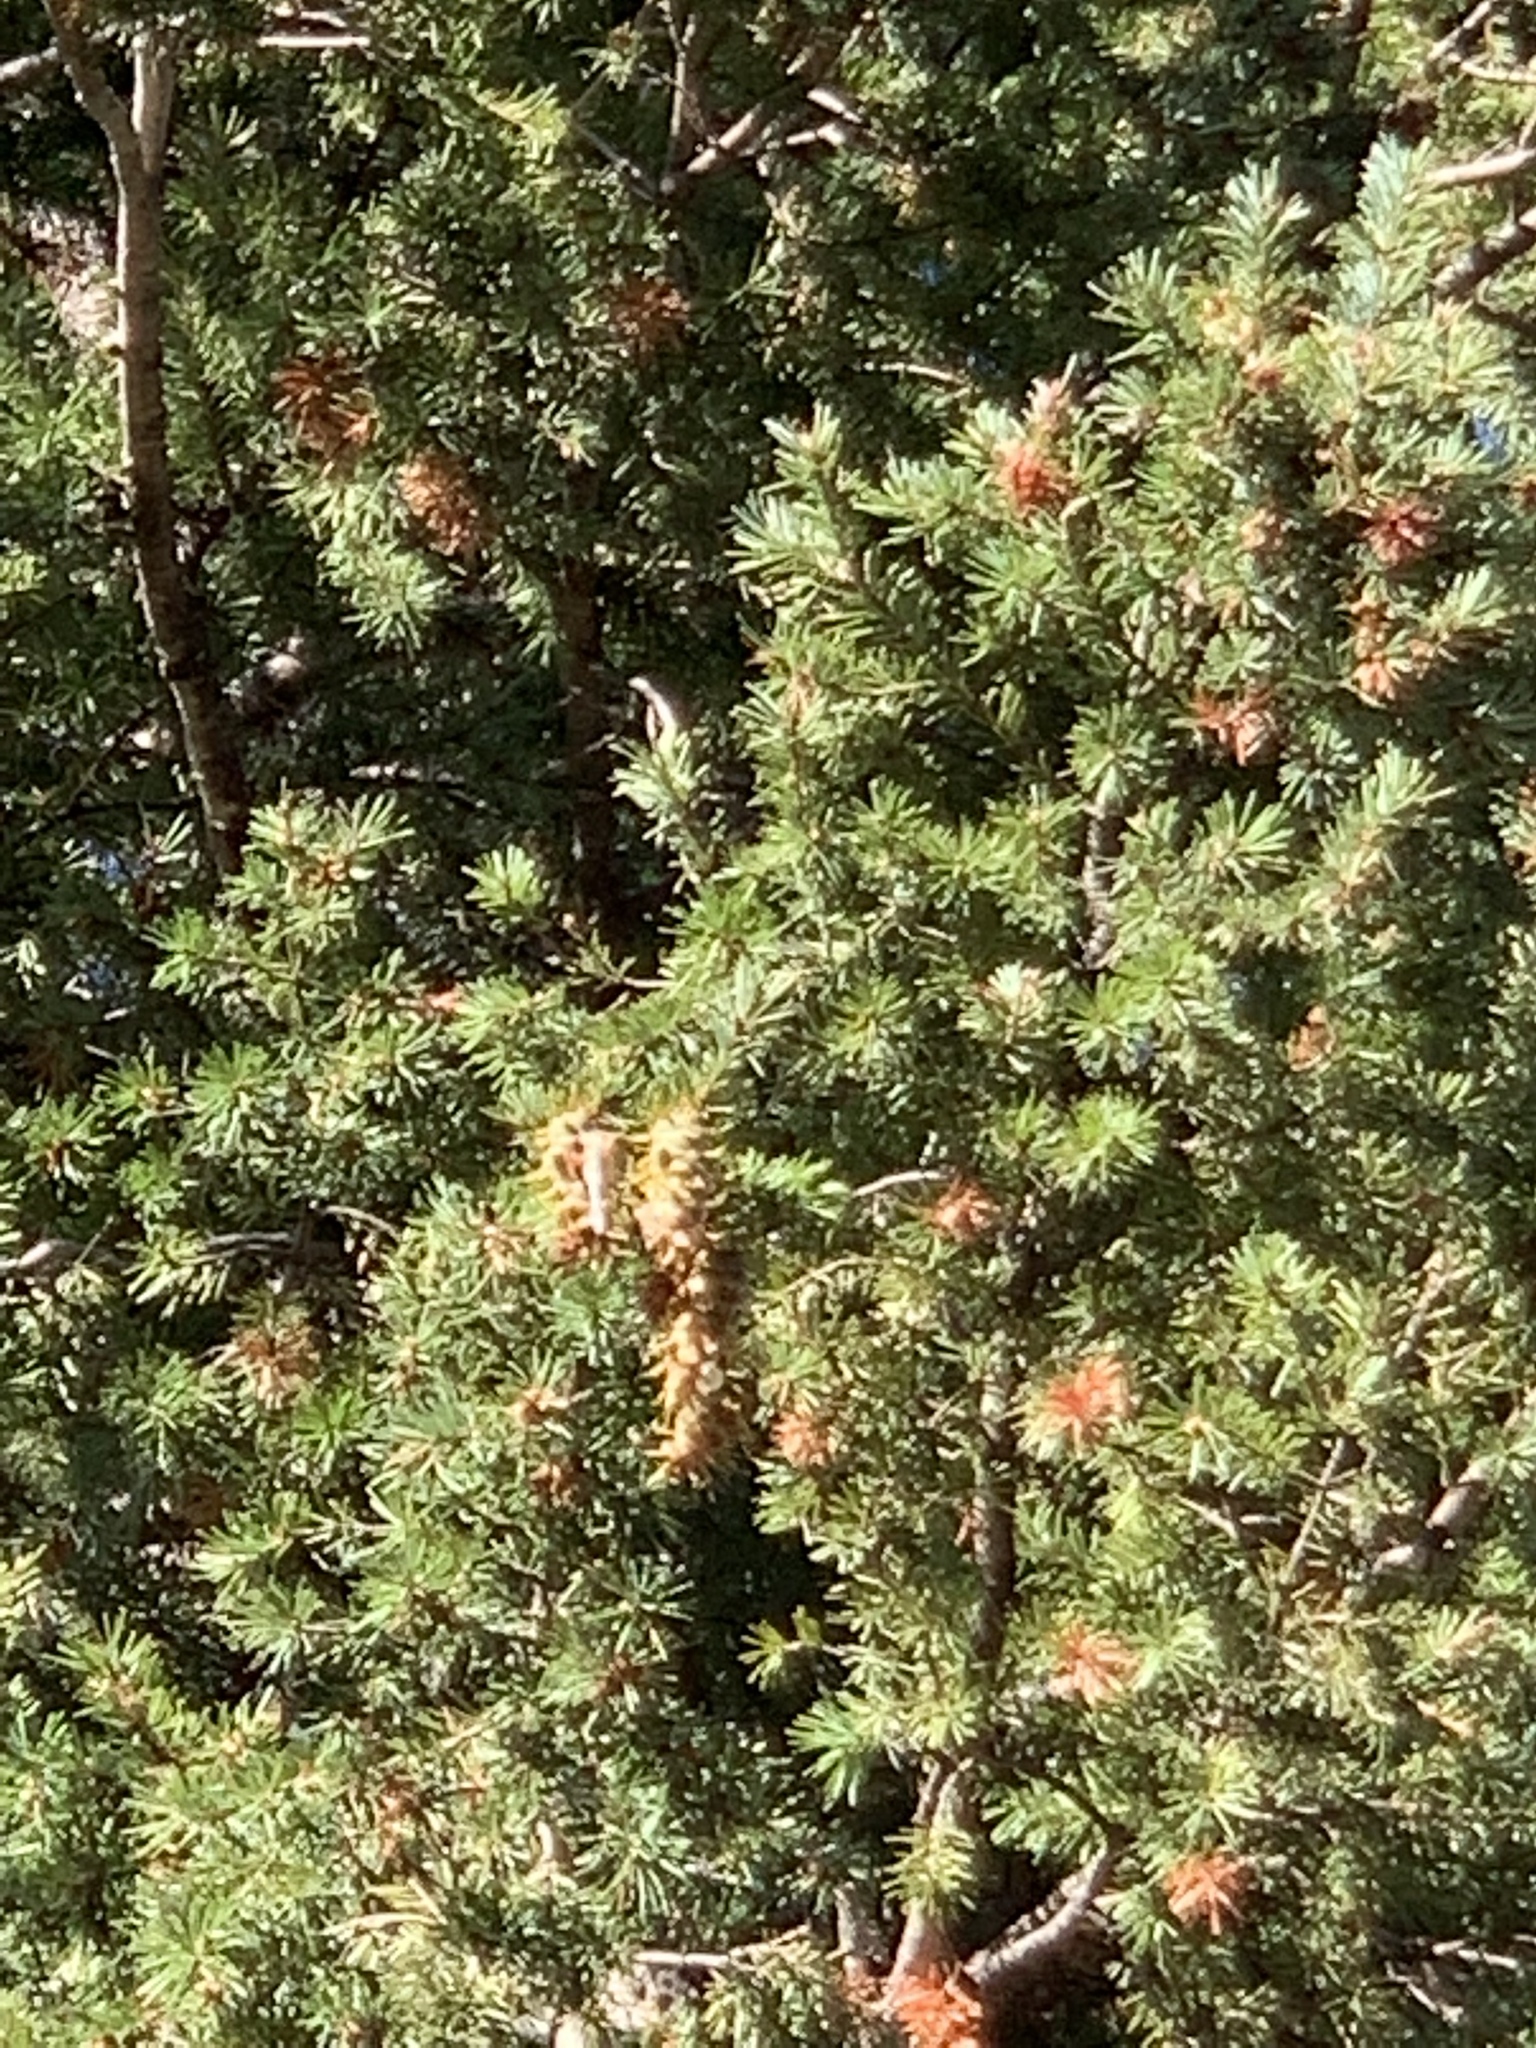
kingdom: Plantae
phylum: Tracheophyta
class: Pinopsida
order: Pinales
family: Pinaceae
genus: Pseudotsuga
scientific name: Pseudotsuga menziesii
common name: Douglas fir
